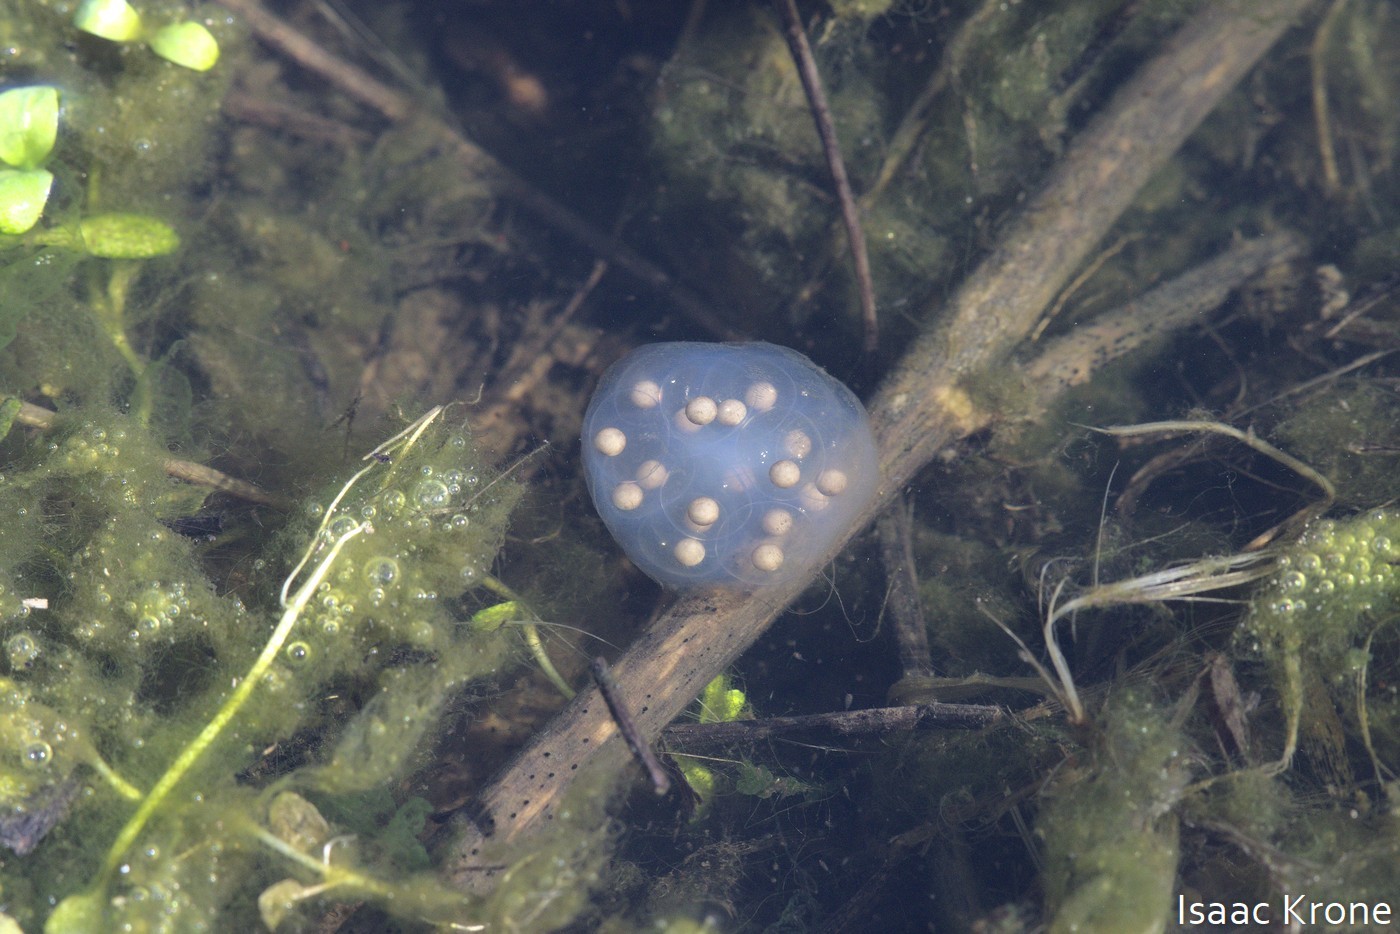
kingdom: Animalia
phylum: Chordata
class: Amphibia
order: Caudata
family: Salamandridae
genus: Taricha
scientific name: Taricha torosa
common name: California newt
